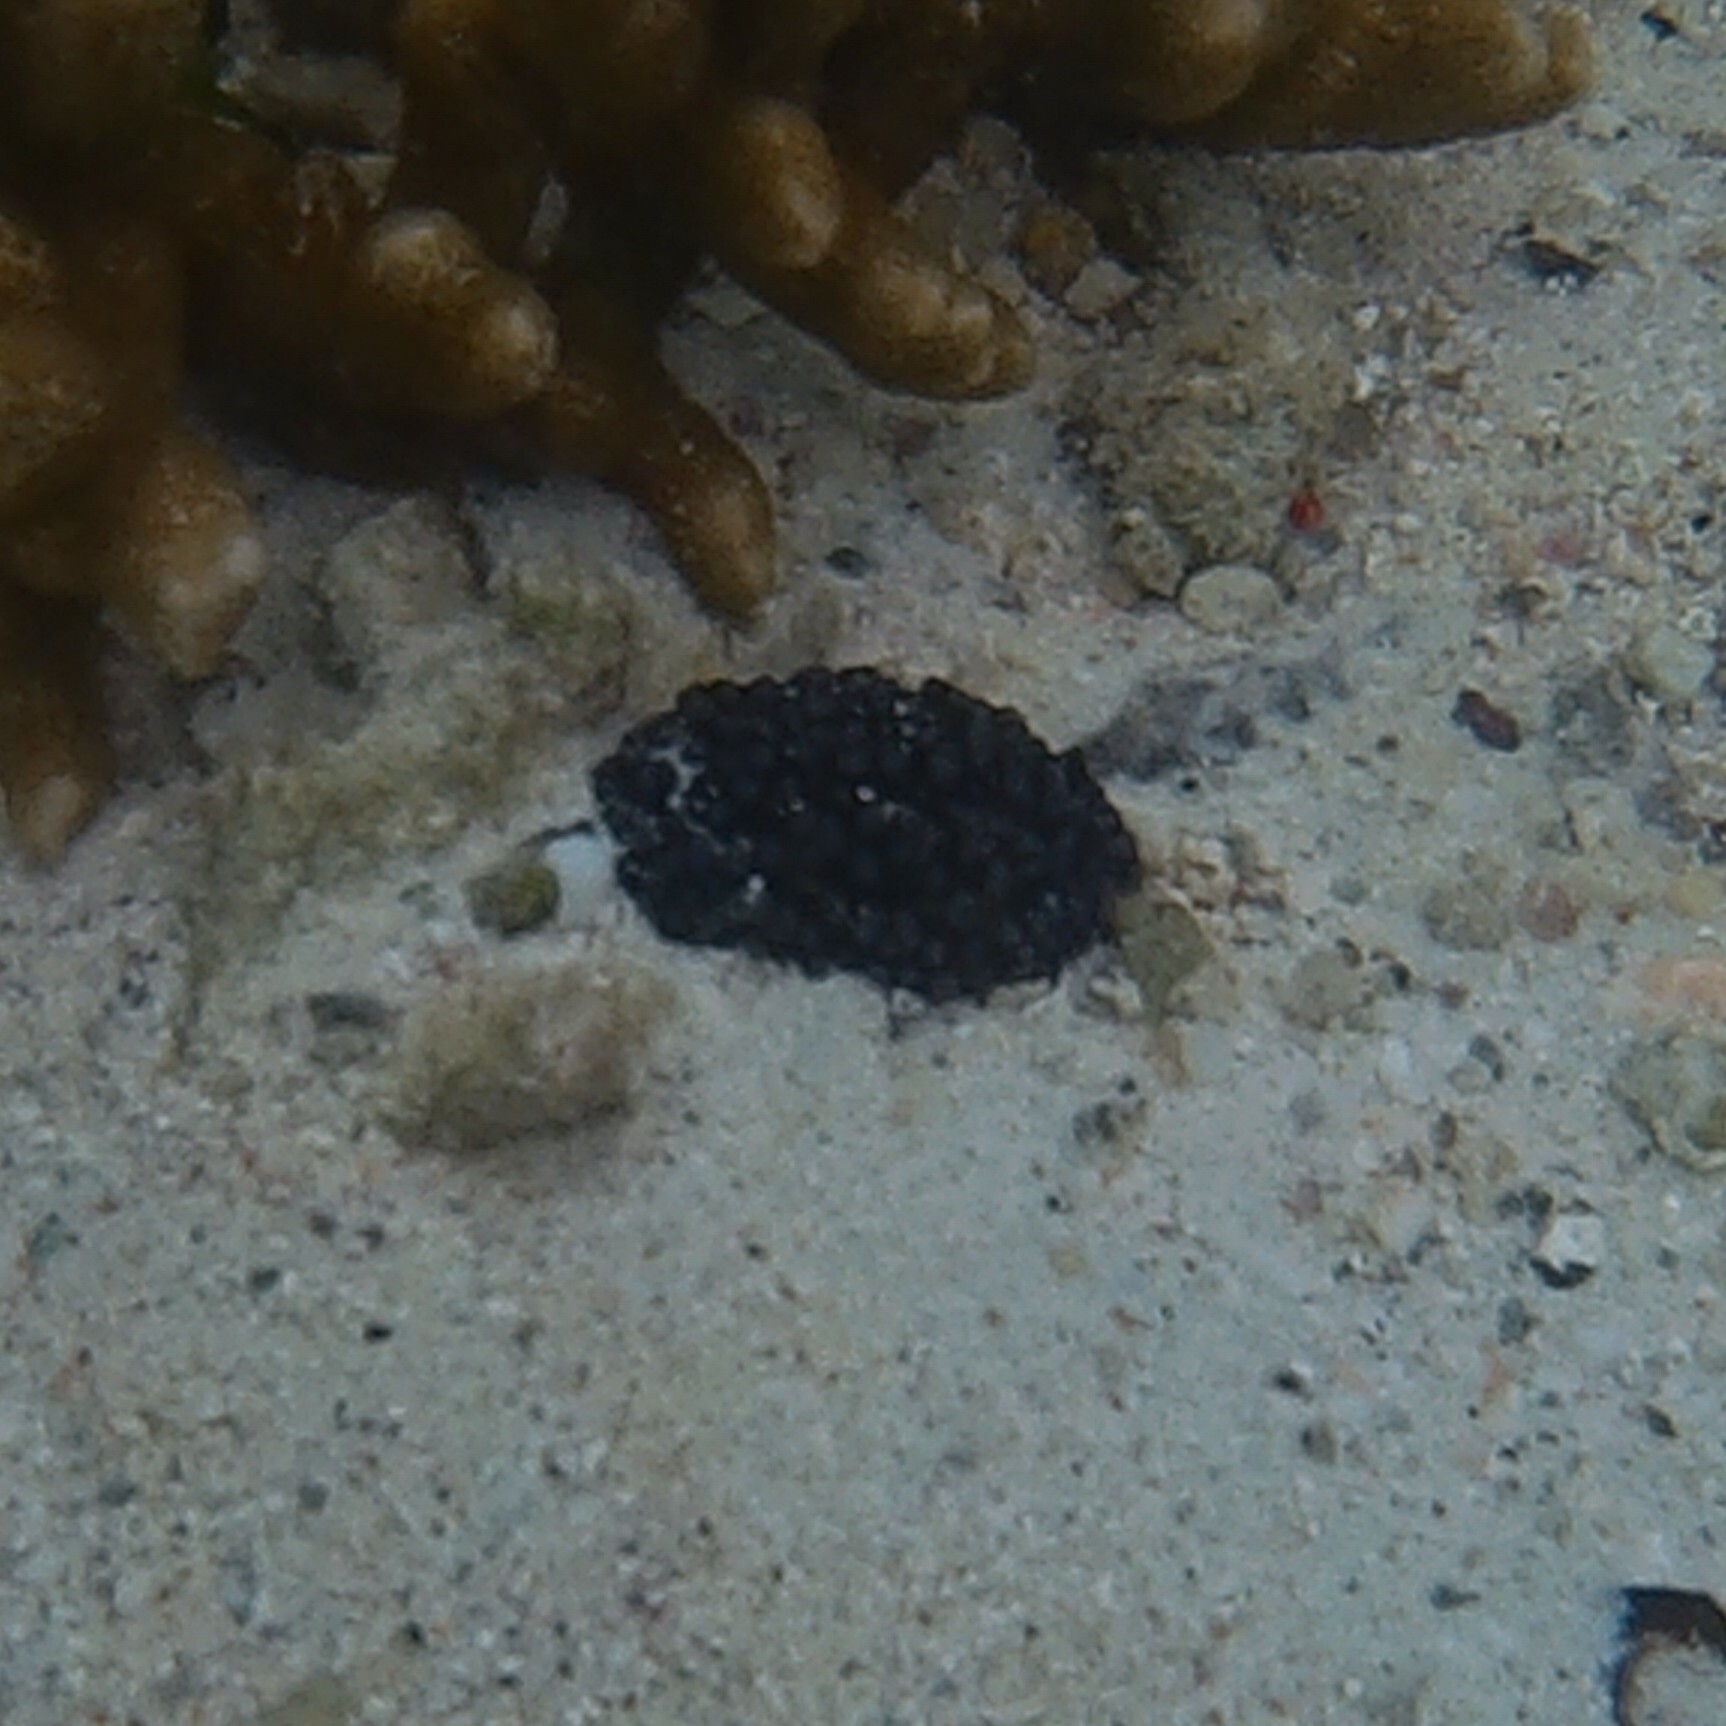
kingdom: Animalia
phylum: Mollusca
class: Gastropoda
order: Nudibranchia
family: Phyllidiidae
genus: Phyllidiella
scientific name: Phyllidiella nigra
